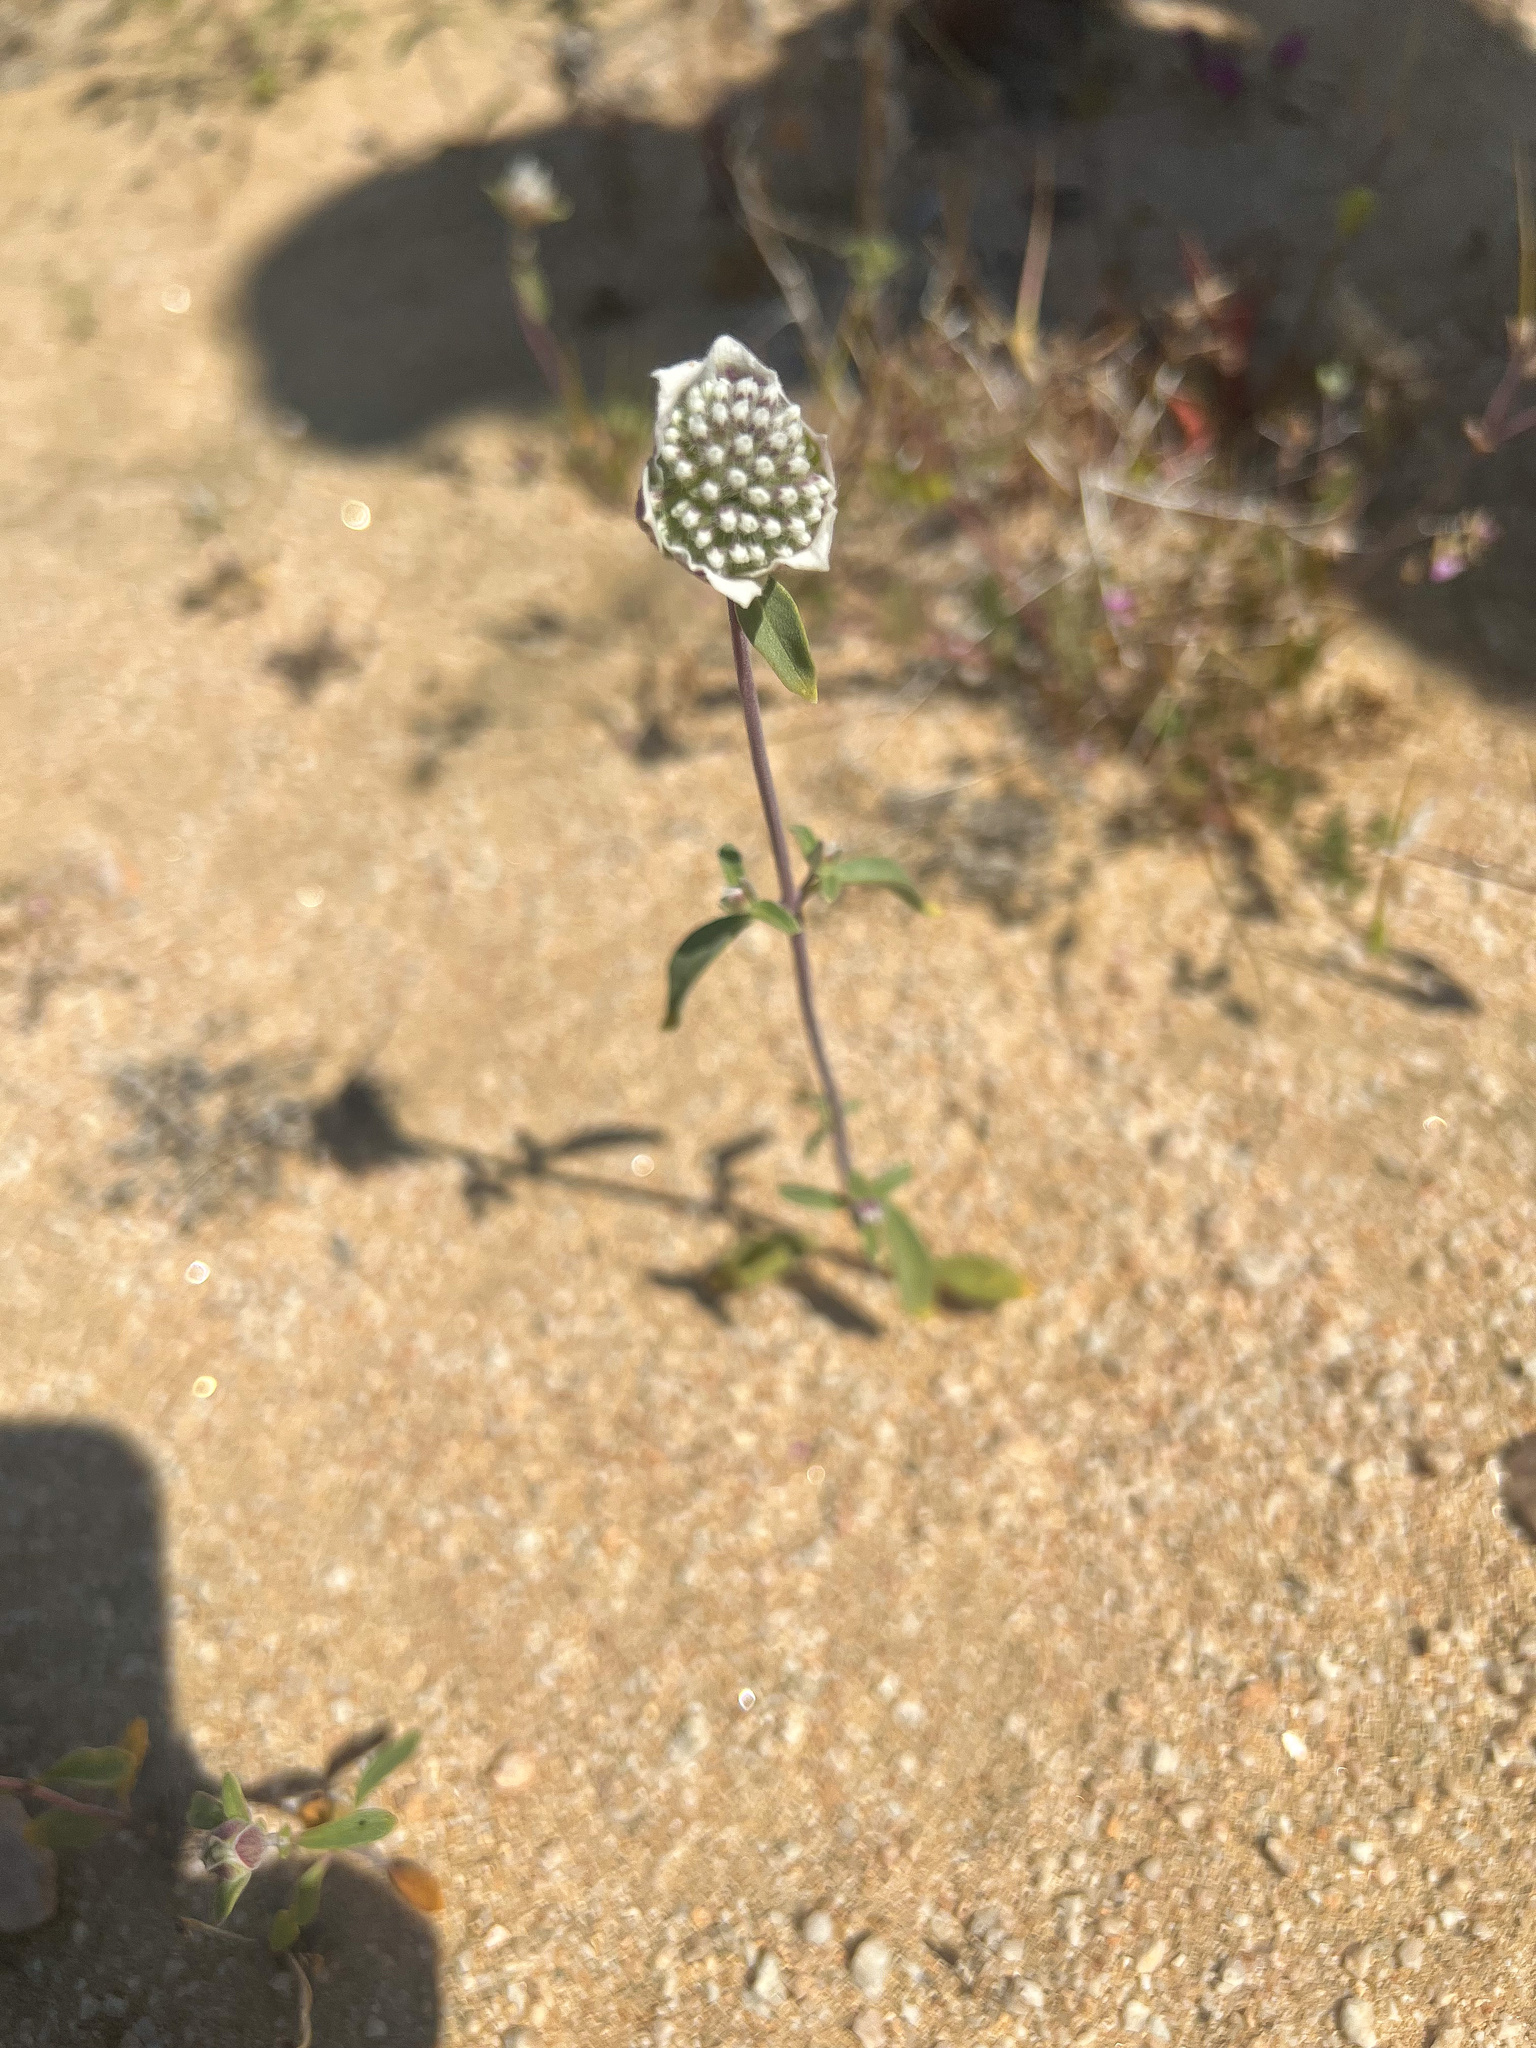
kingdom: Plantae
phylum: Tracheophyta
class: Magnoliopsida
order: Lamiales
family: Lamiaceae
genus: Monardella
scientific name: Monardella exilis
